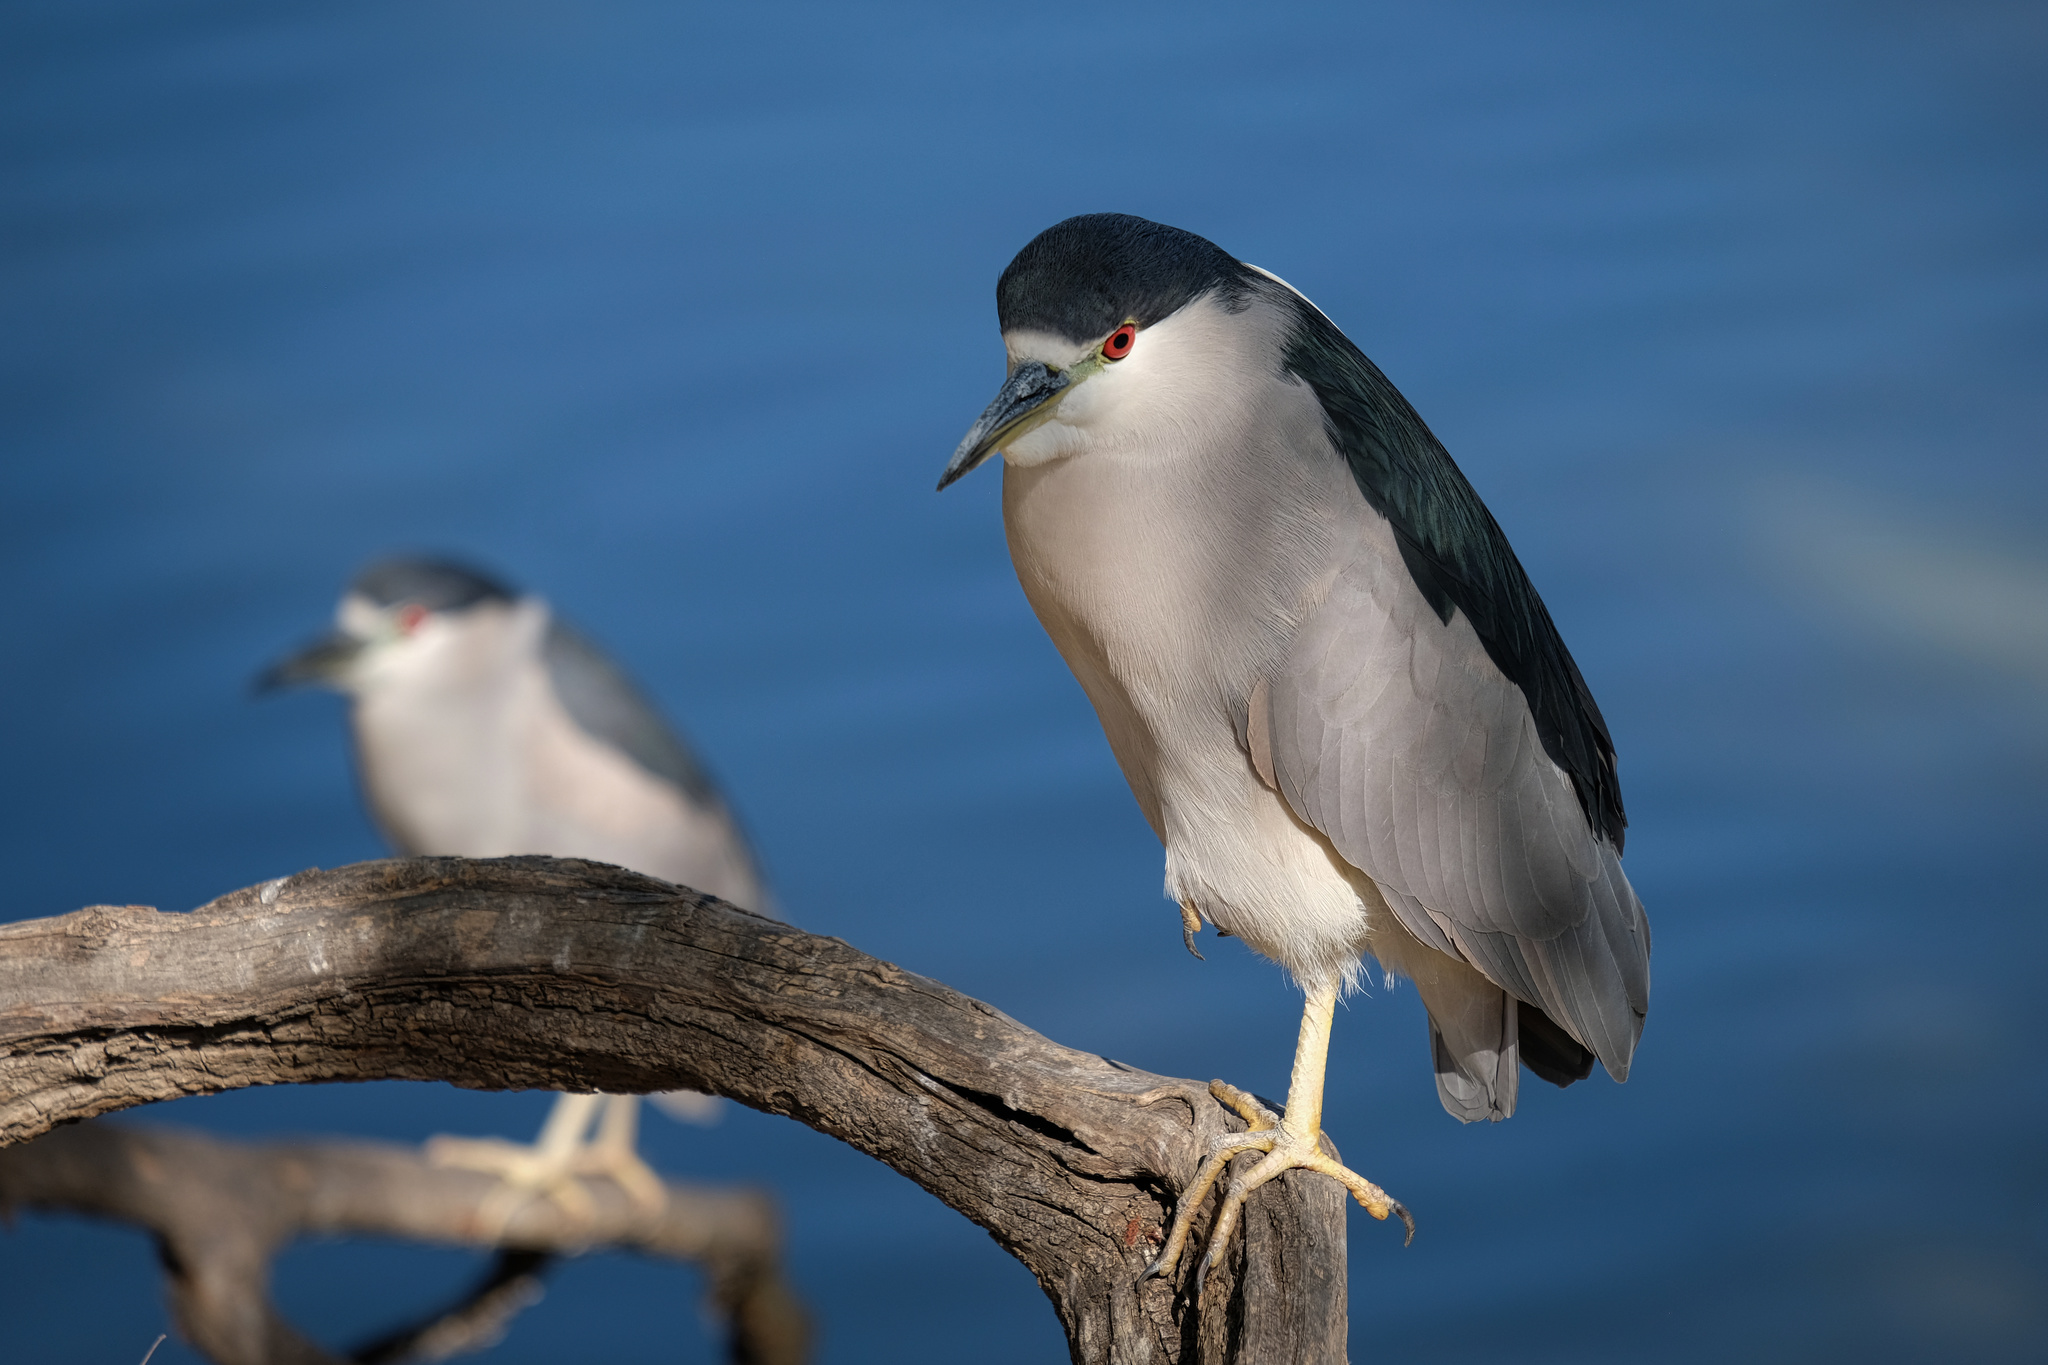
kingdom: Animalia
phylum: Chordata
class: Aves
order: Pelecaniformes
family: Ardeidae
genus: Nycticorax
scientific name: Nycticorax nycticorax
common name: Black-crowned night heron
